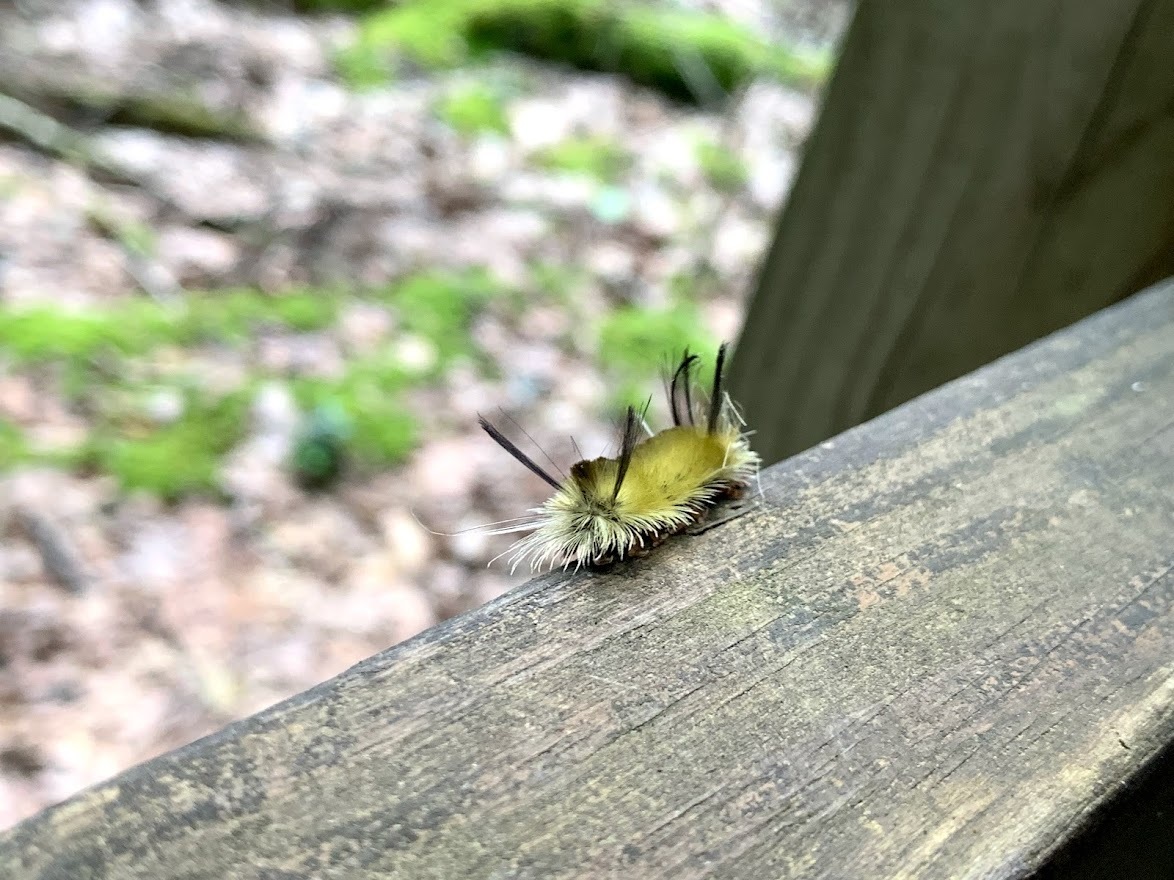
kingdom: Animalia
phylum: Arthropoda
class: Insecta
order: Lepidoptera
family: Erebidae
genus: Halysidota
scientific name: Halysidota tessellaris
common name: Banded tussock moth
